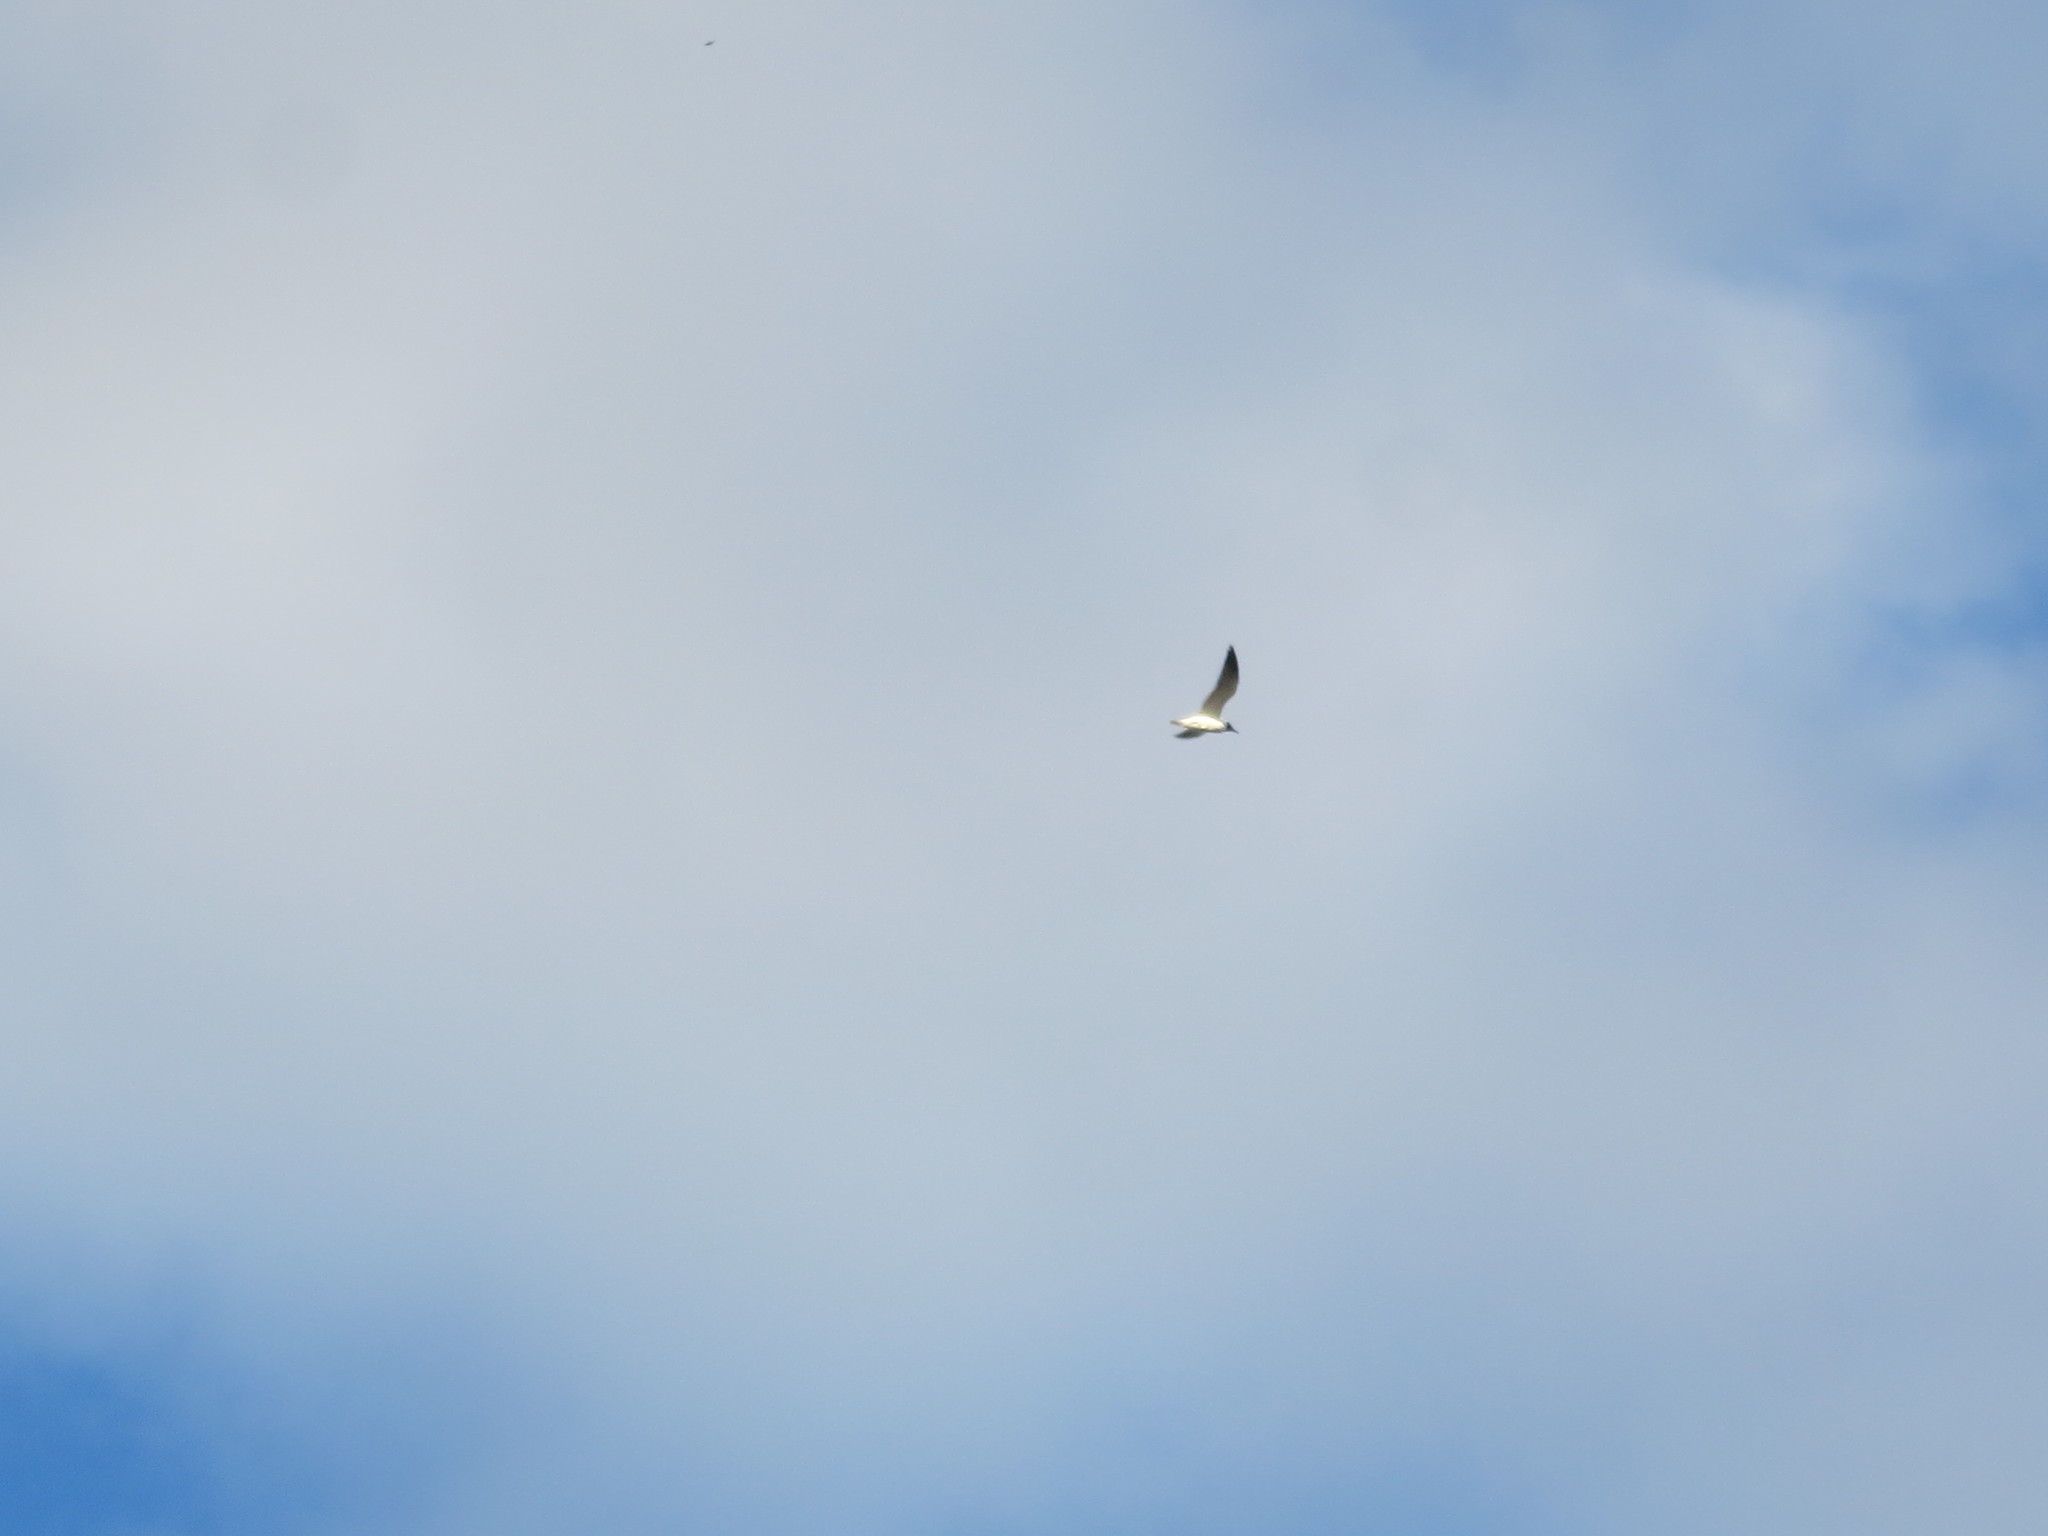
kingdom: Animalia
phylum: Chordata
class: Aves
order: Charadriiformes
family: Laridae
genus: Leucophaeus
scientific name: Leucophaeus atricilla
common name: Laughing gull
